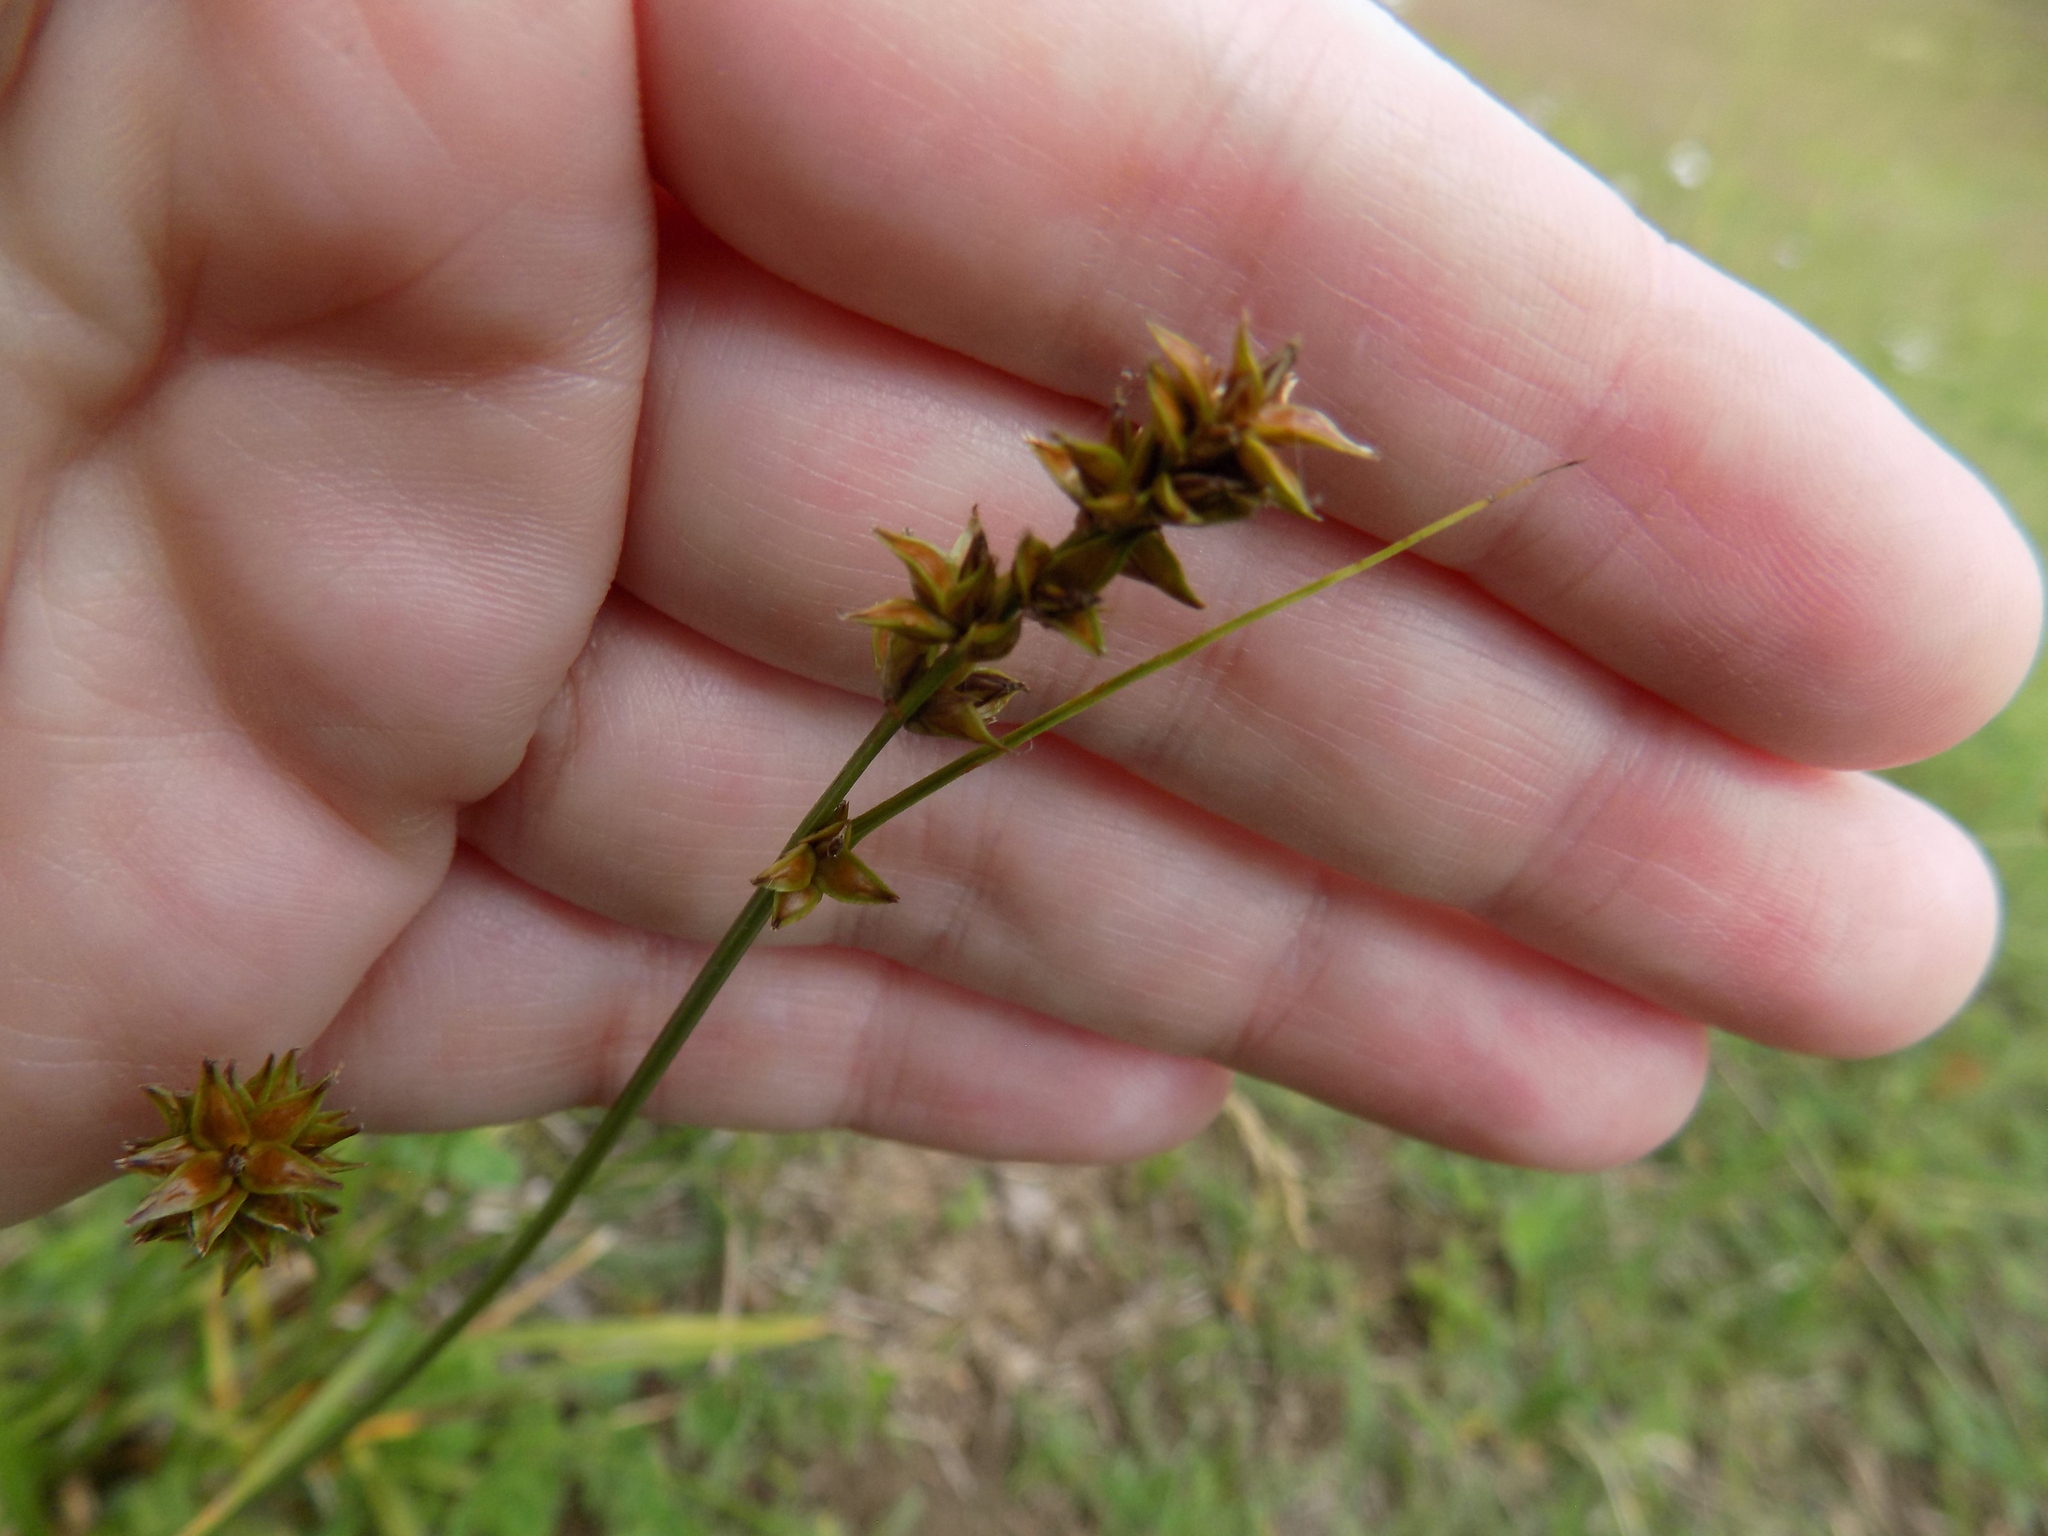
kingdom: Plantae
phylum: Tracheophyta
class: Liliopsida
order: Poales
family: Cyperaceae
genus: Carex
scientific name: Carex diandra
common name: Lesser tussock-sedge
